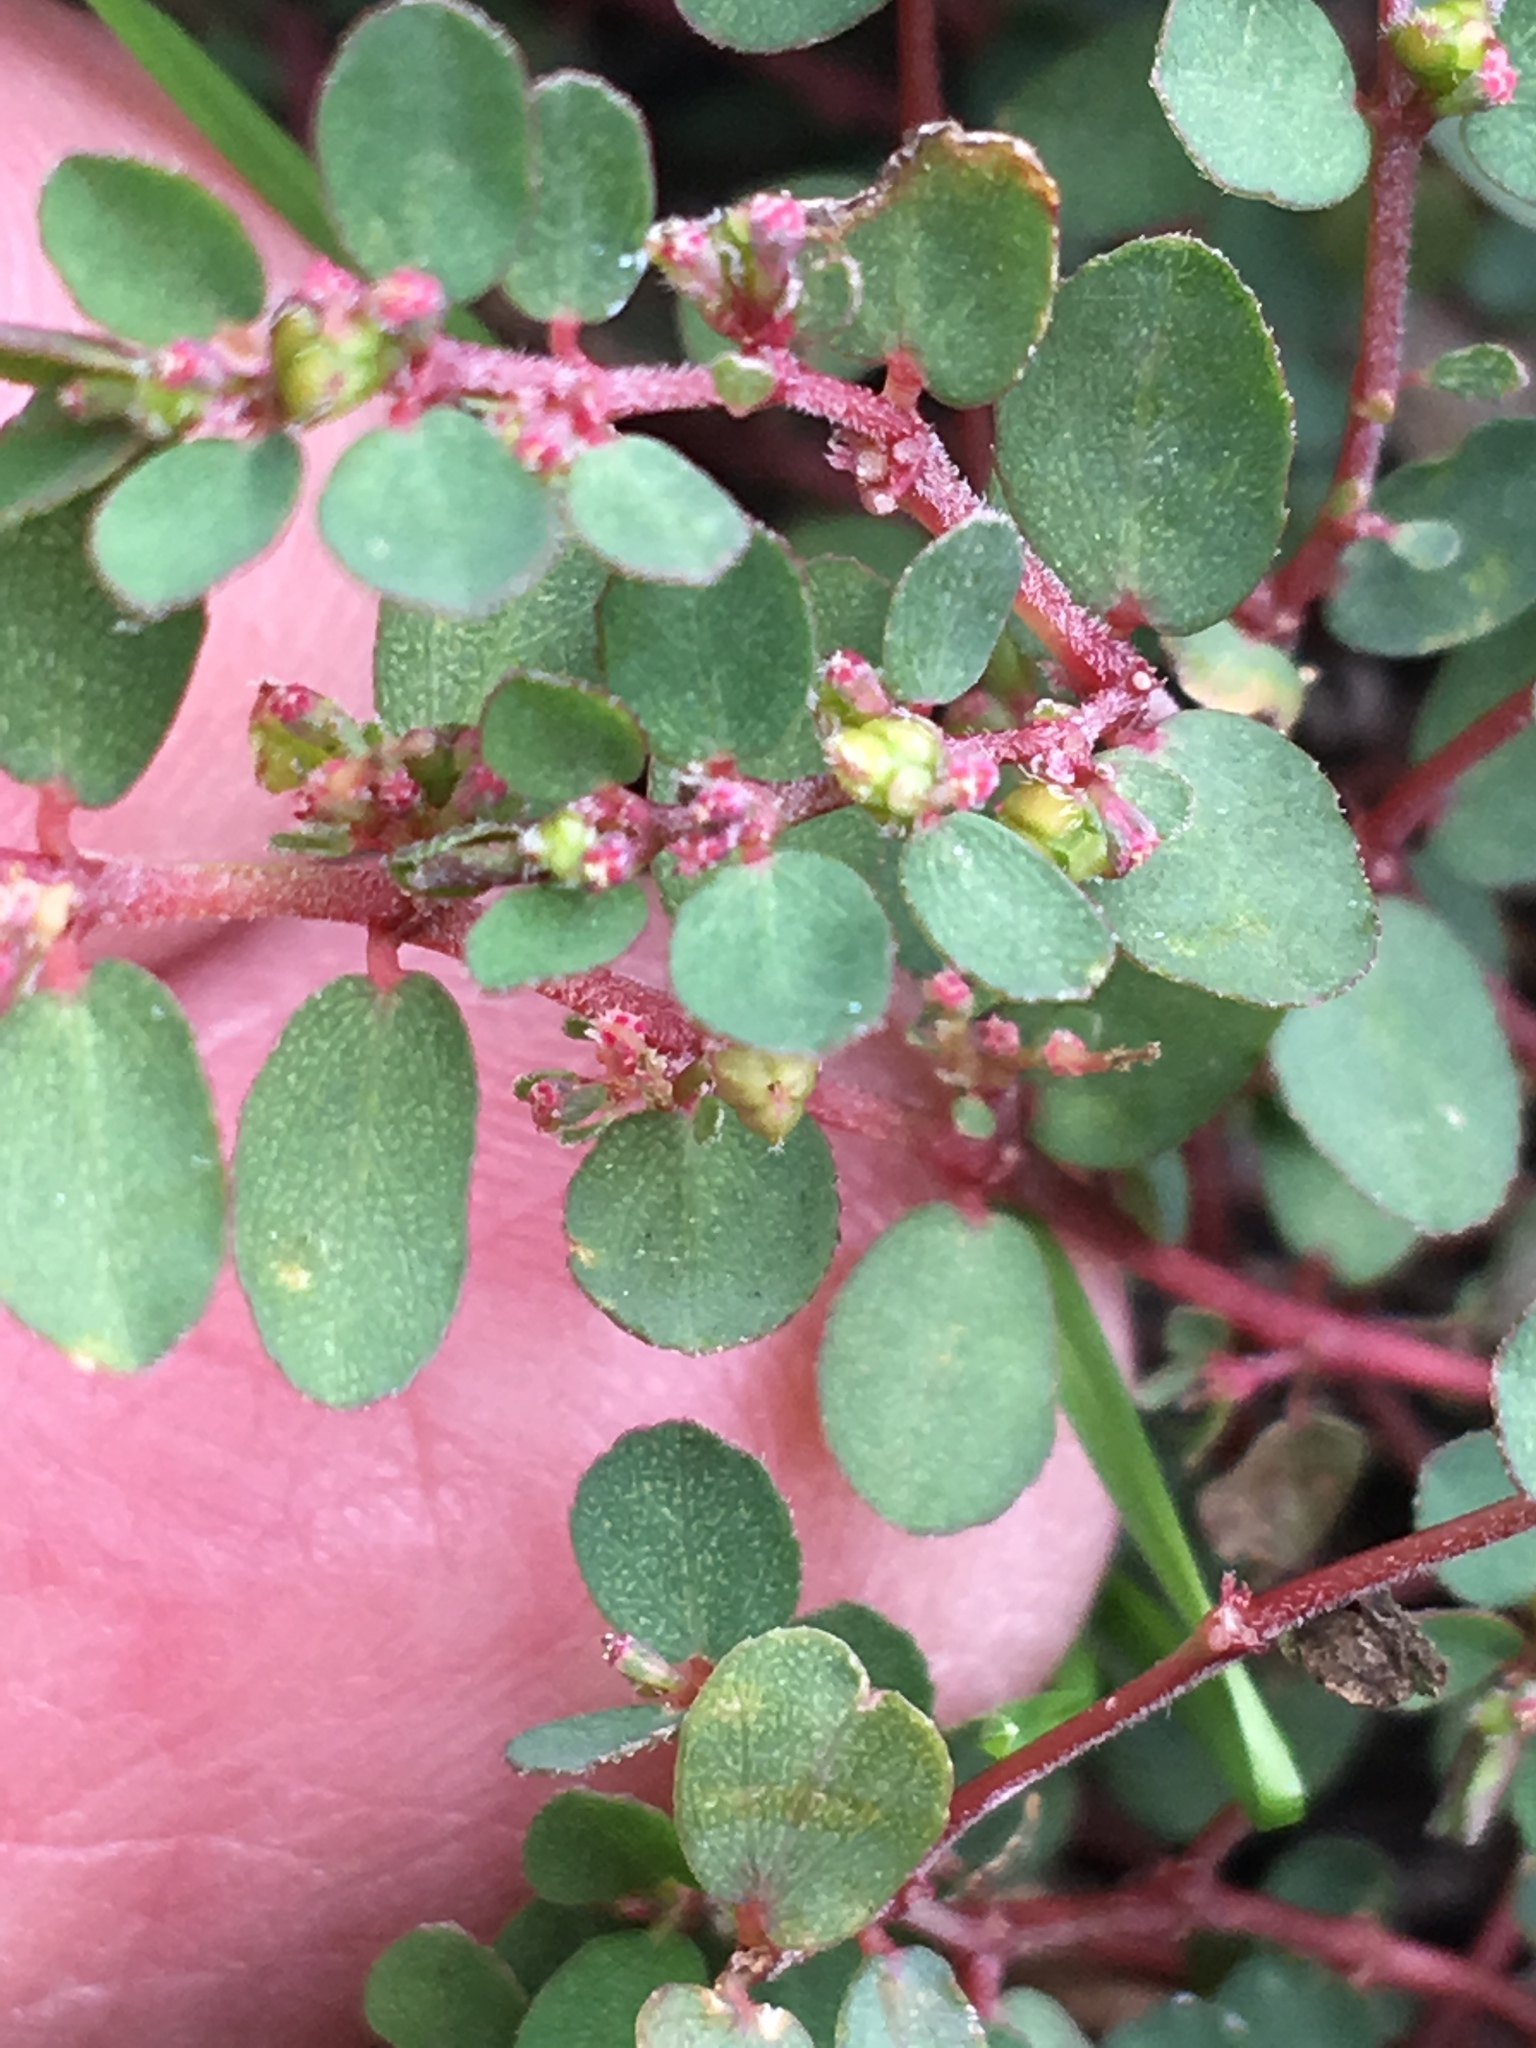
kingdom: Plantae
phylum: Tracheophyta
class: Magnoliopsida
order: Malpighiales
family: Euphorbiaceae
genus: Euphorbia
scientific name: Euphorbia prostrata
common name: Prostrate sandmat
